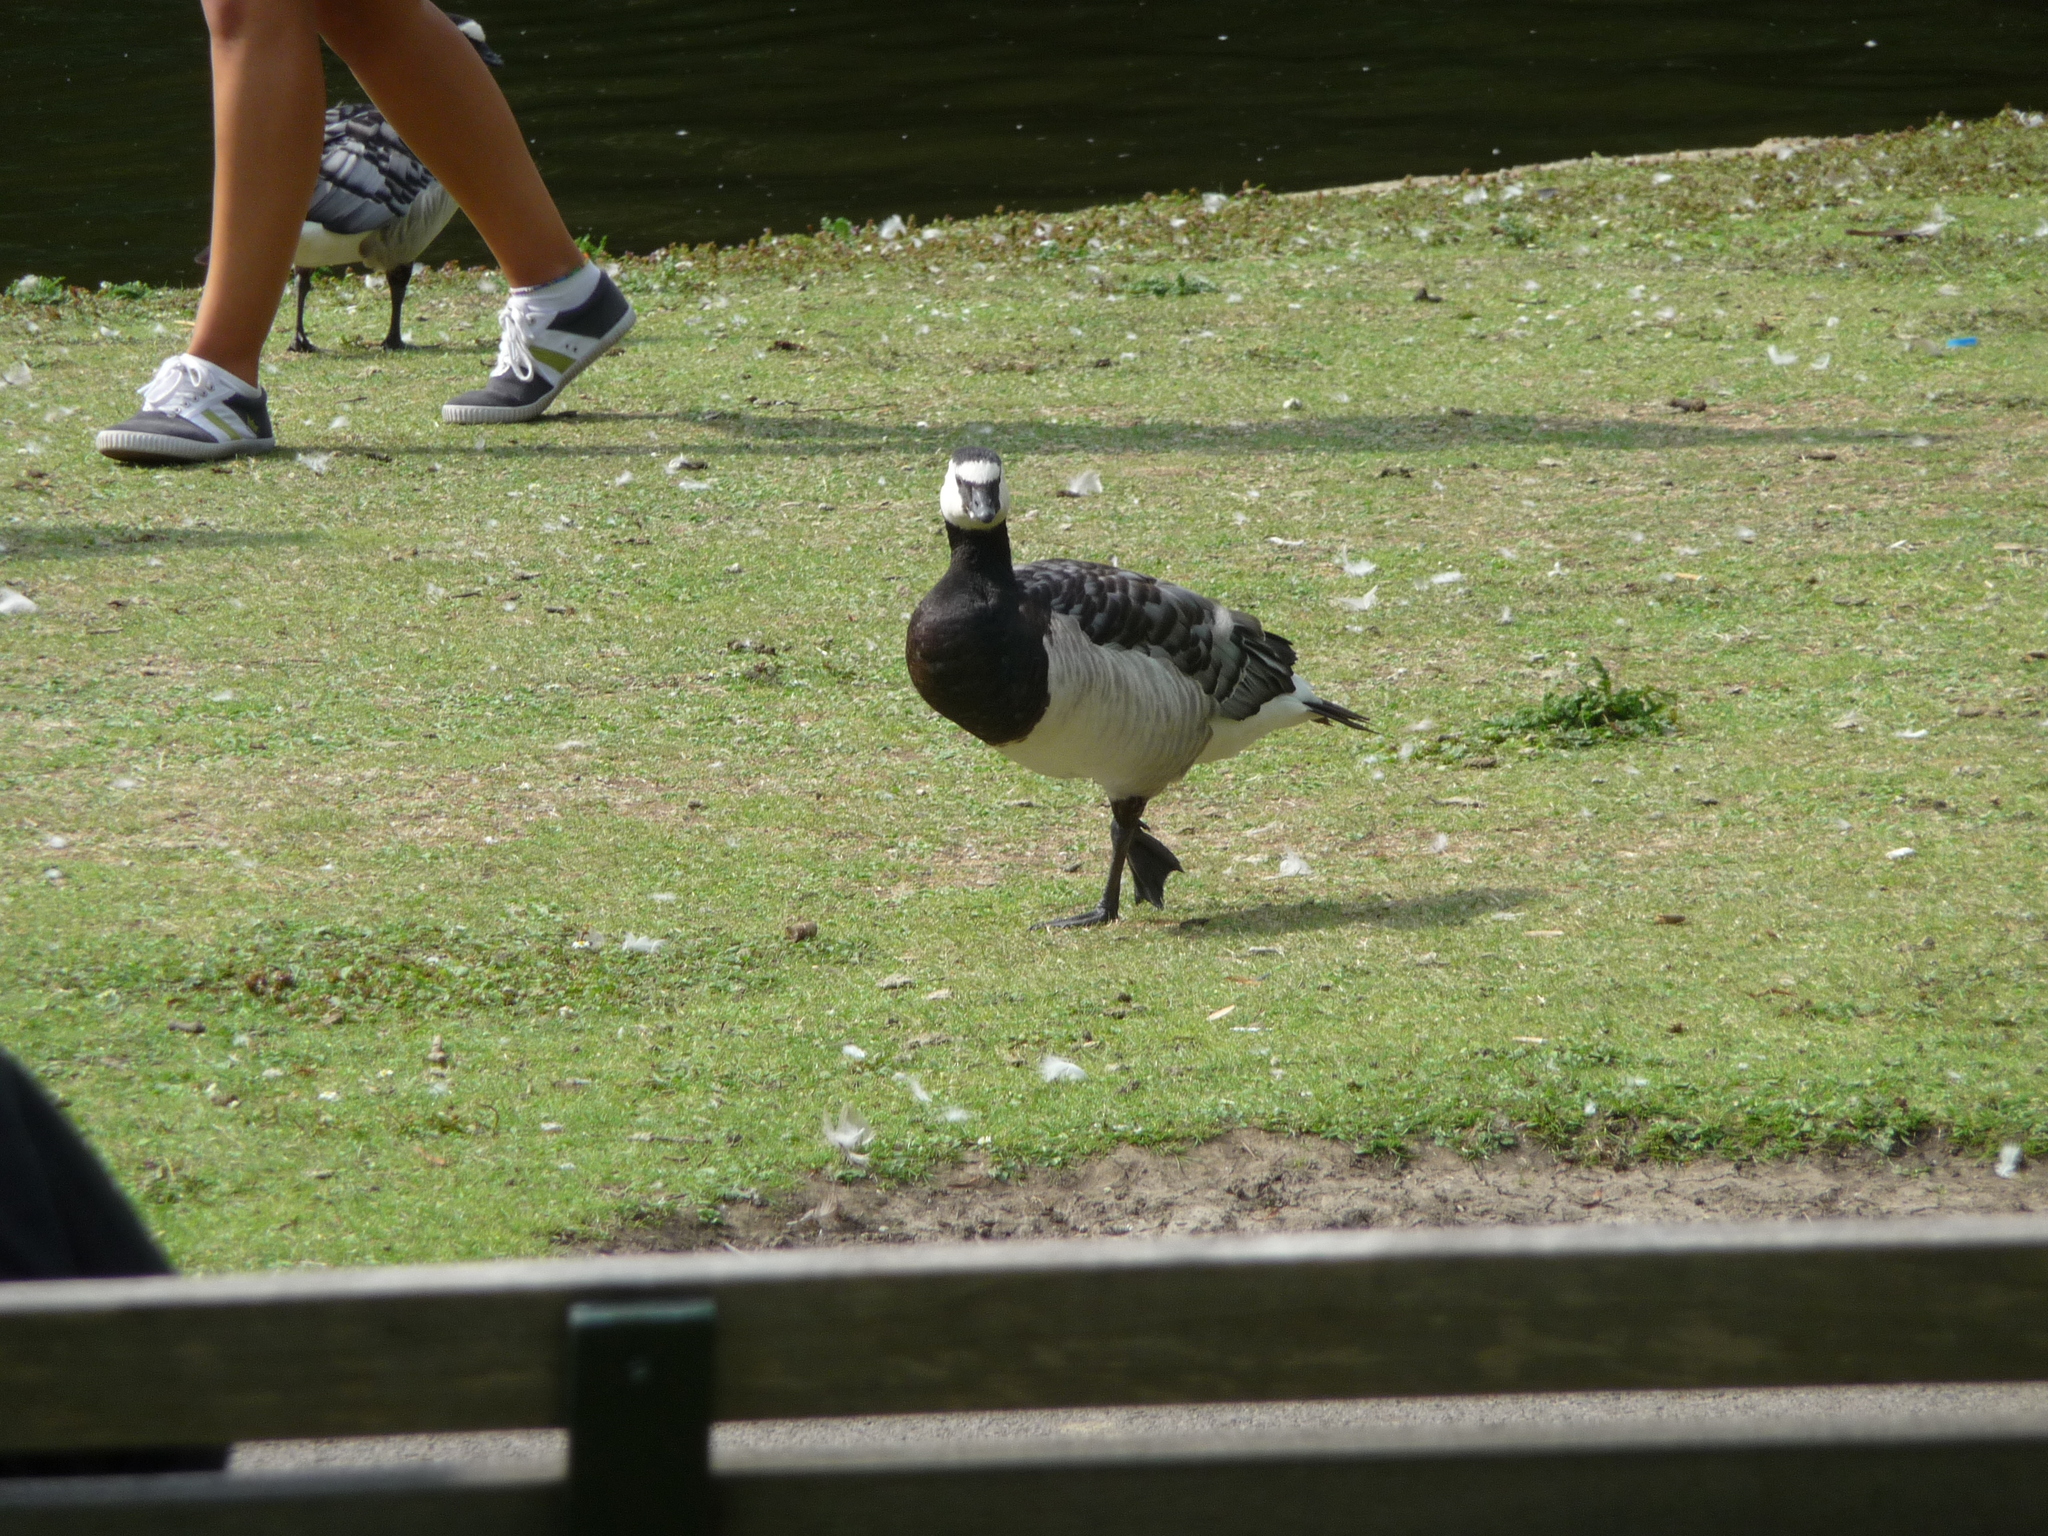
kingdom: Animalia
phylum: Chordata
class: Aves
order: Anseriformes
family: Anatidae
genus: Branta
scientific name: Branta leucopsis
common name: Barnacle goose
